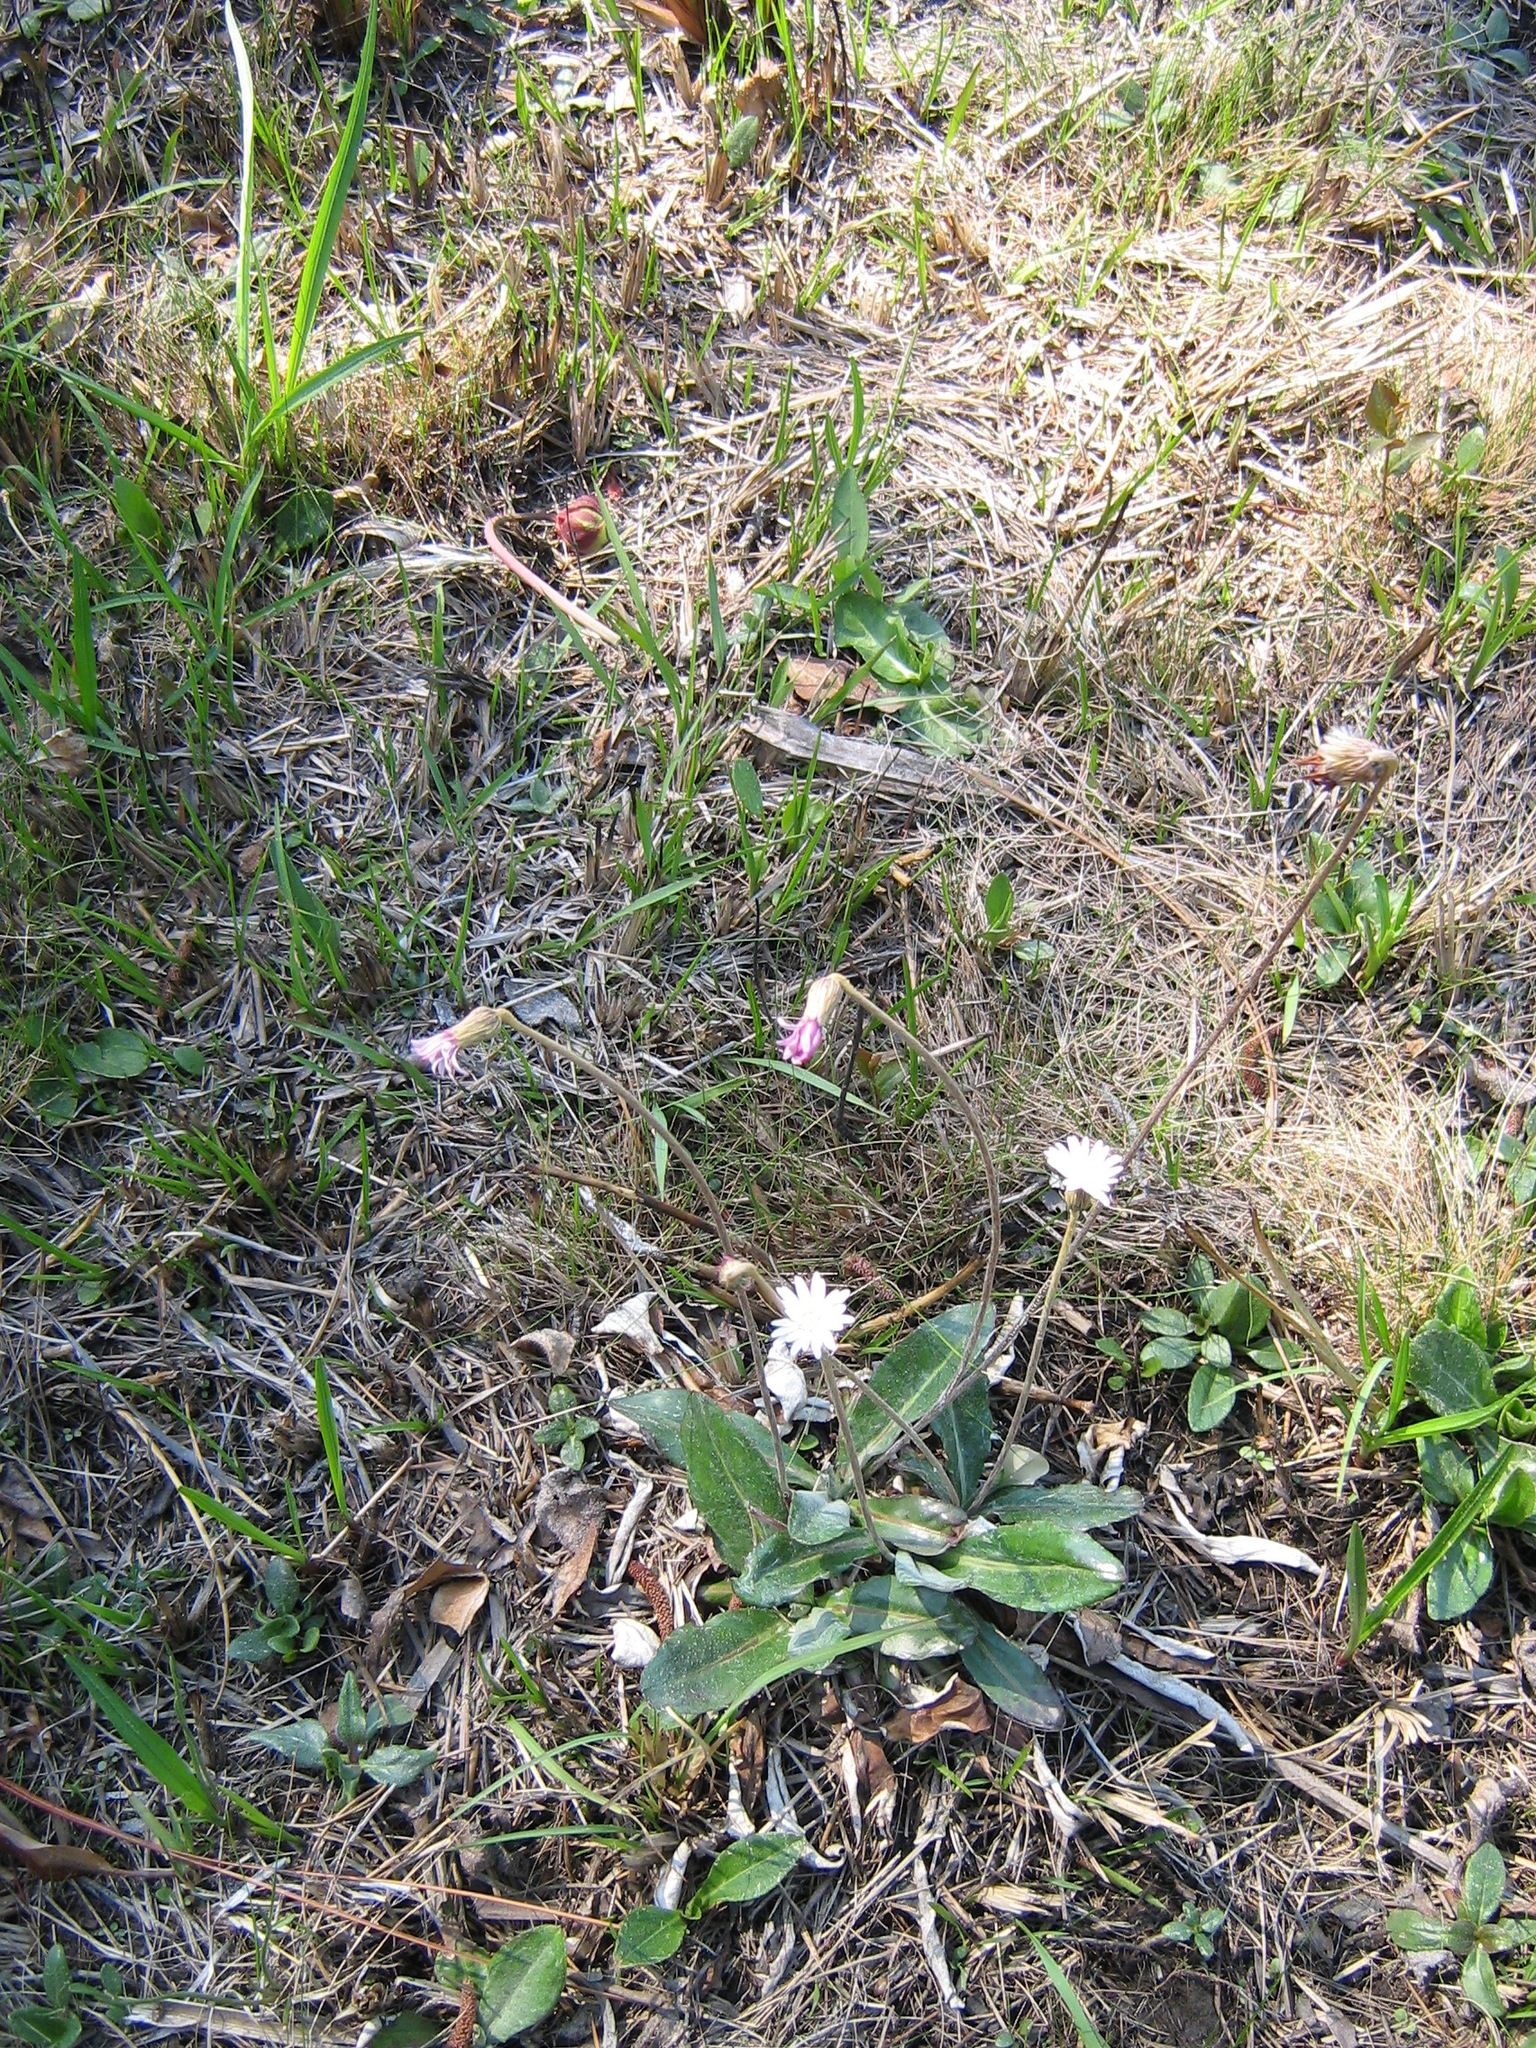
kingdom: Plantae
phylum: Tracheophyta
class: Magnoliopsida
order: Asterales
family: Asteraceae
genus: Chaptalia
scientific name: Chaptalia tomentosa
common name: Woolly sunbonnet
